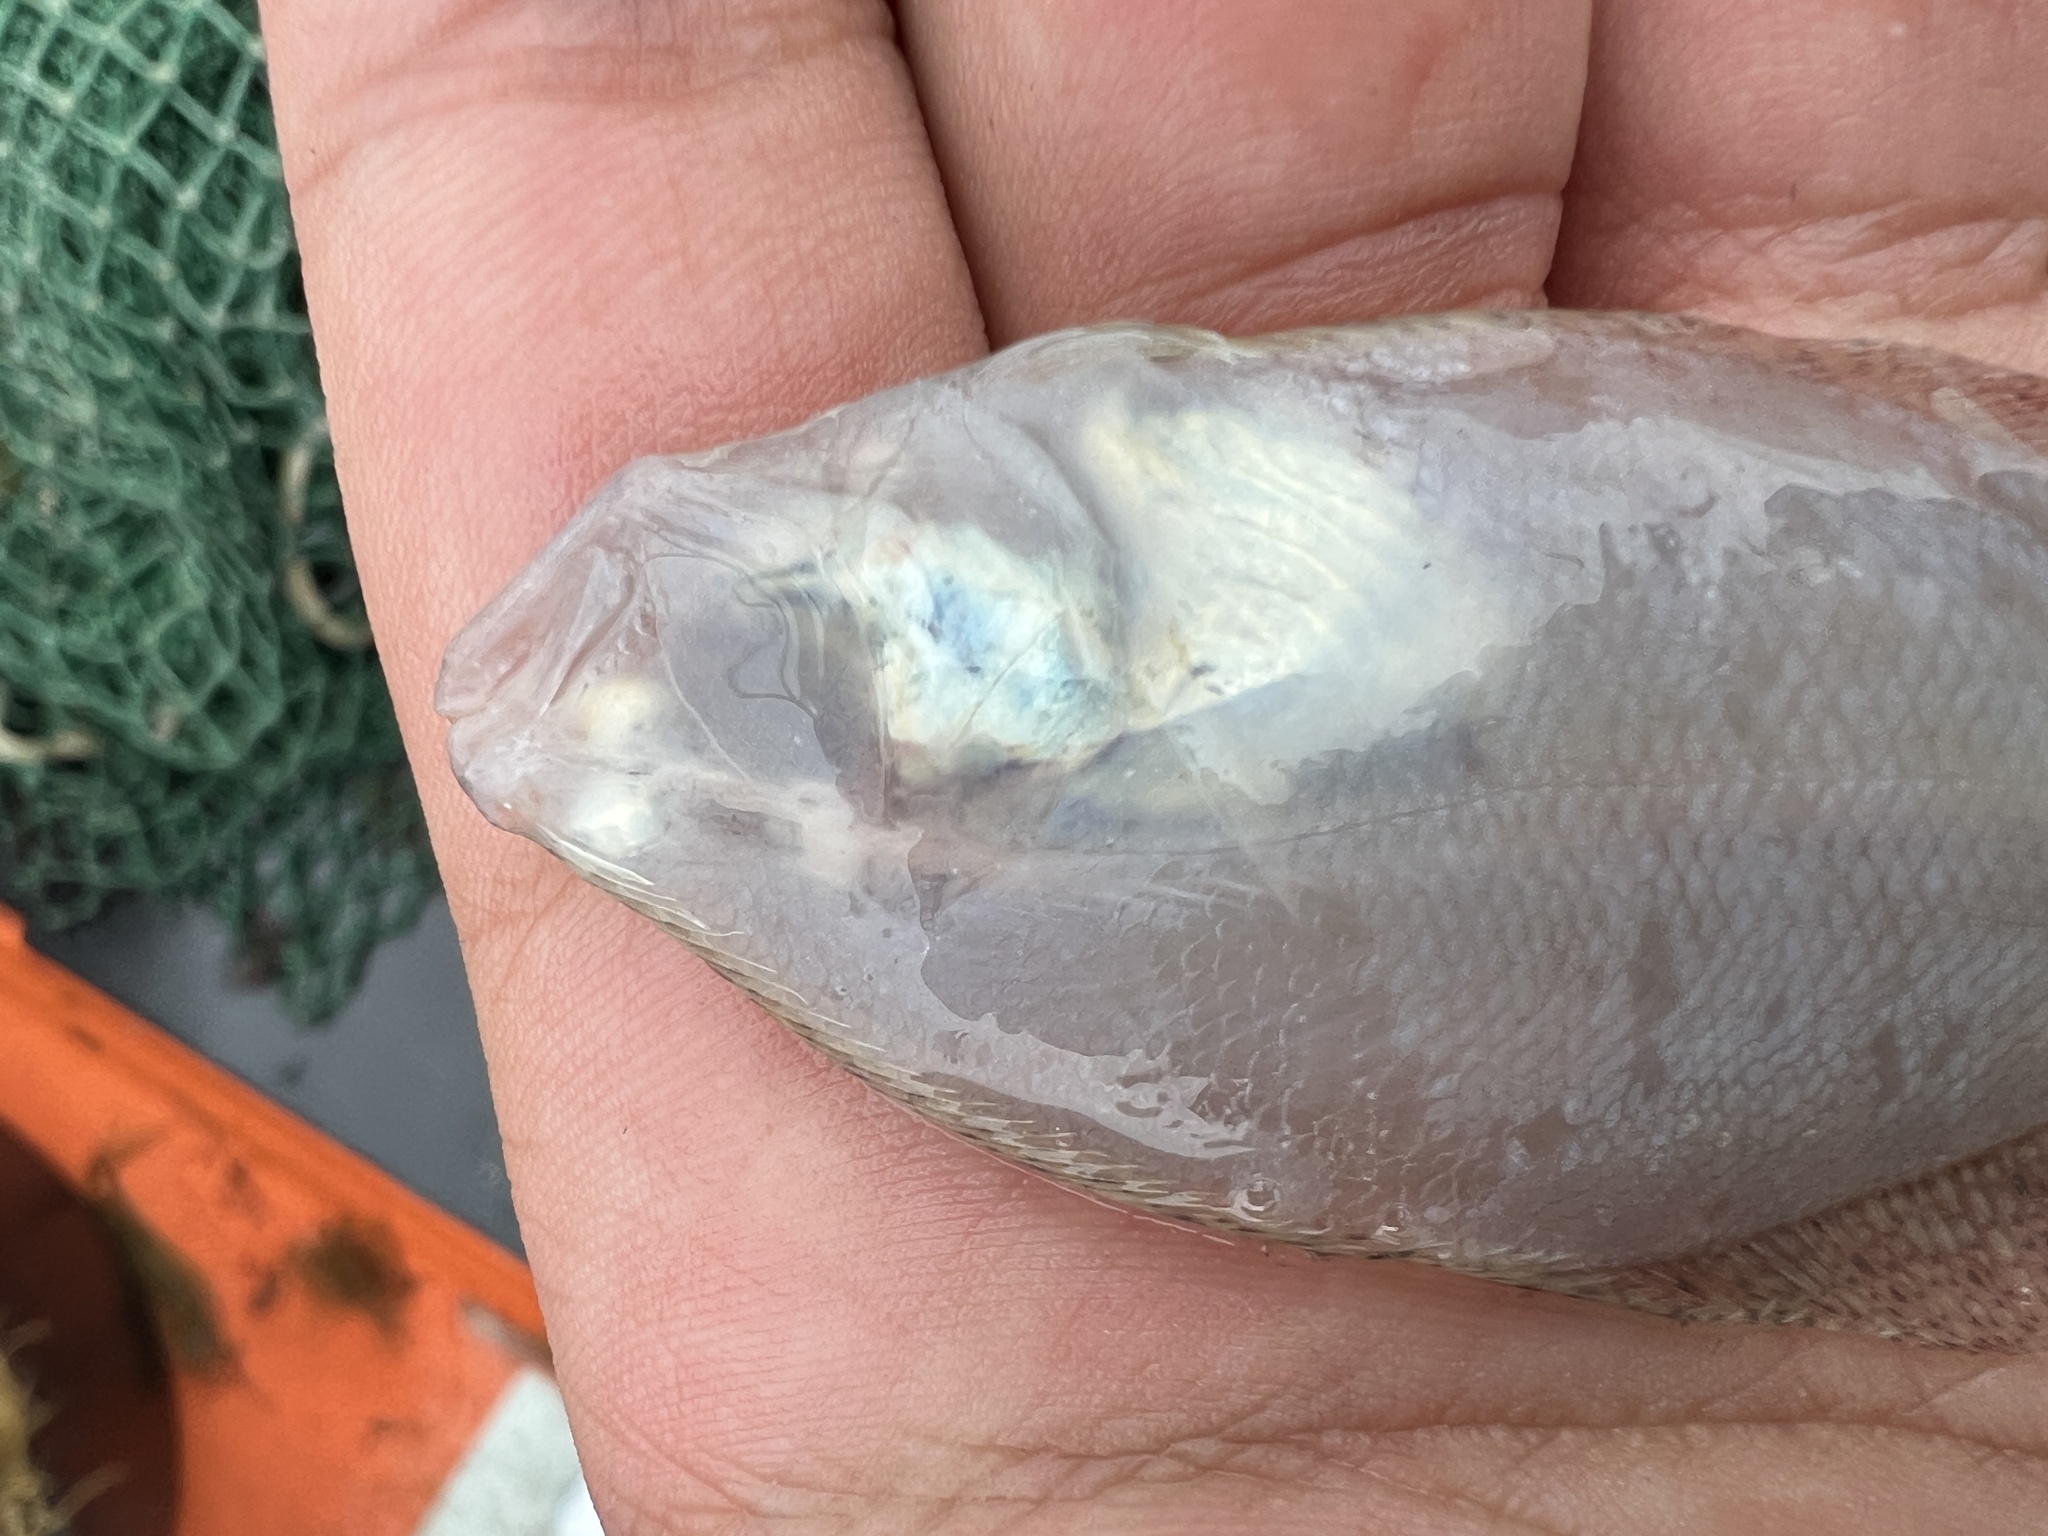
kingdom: Animalia
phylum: Chordata
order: Pleuronectiformes
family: Paralichthyidae
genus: Citharichthys
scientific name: Citharichthys spilopterus
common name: Bay whiff
